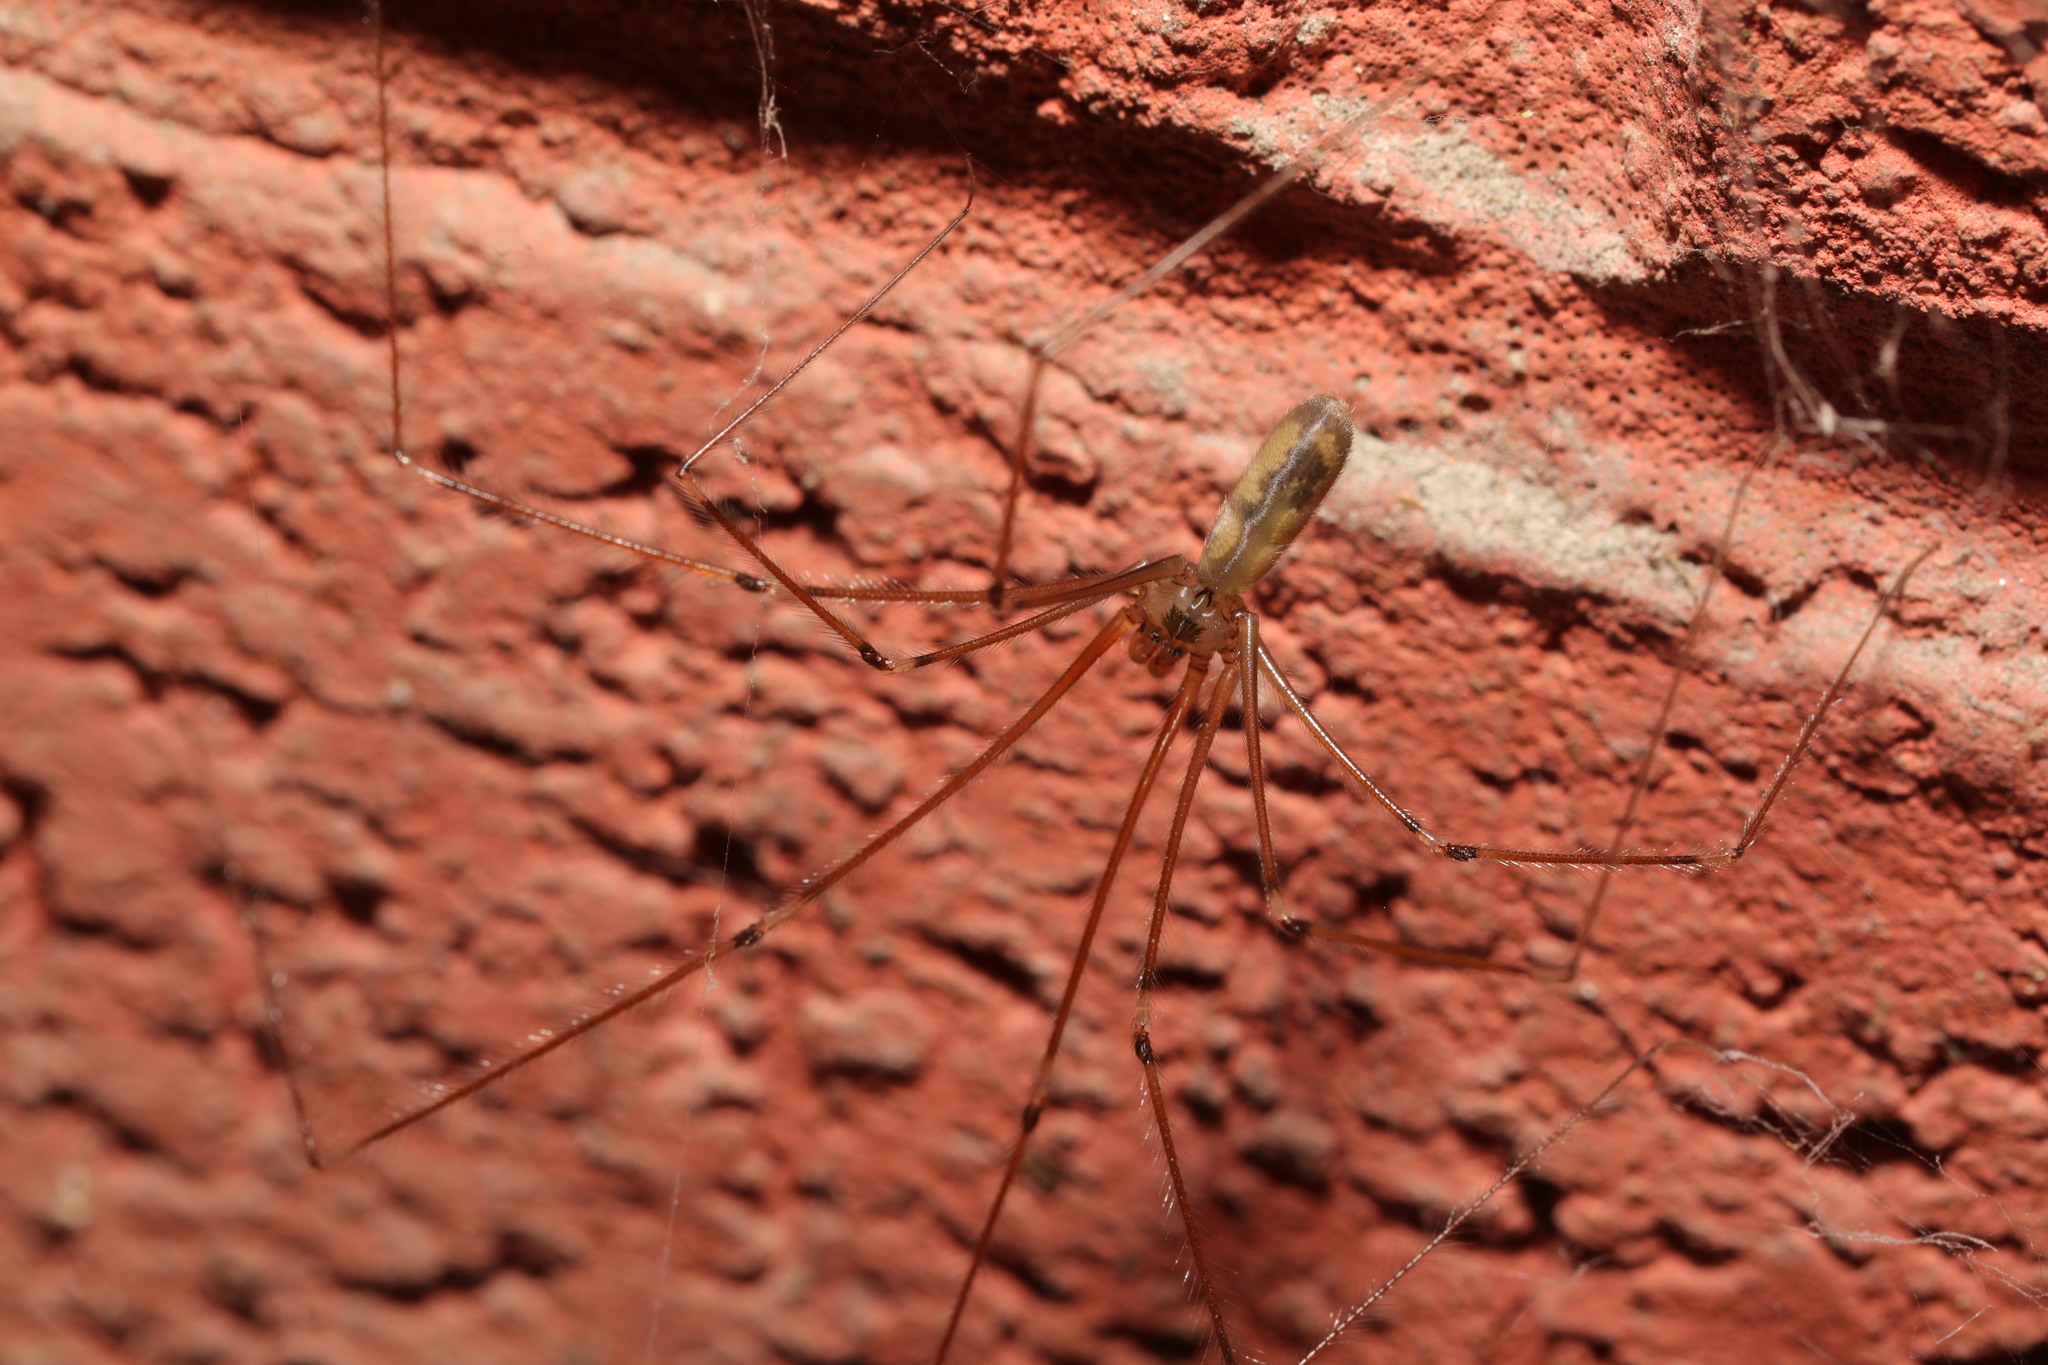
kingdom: Animalia
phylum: Arthropoda
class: Arachnida
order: Araneae
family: Pholcidae
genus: Pholcus
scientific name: Pholcus phalangioides
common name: Longbodied cellar spider
